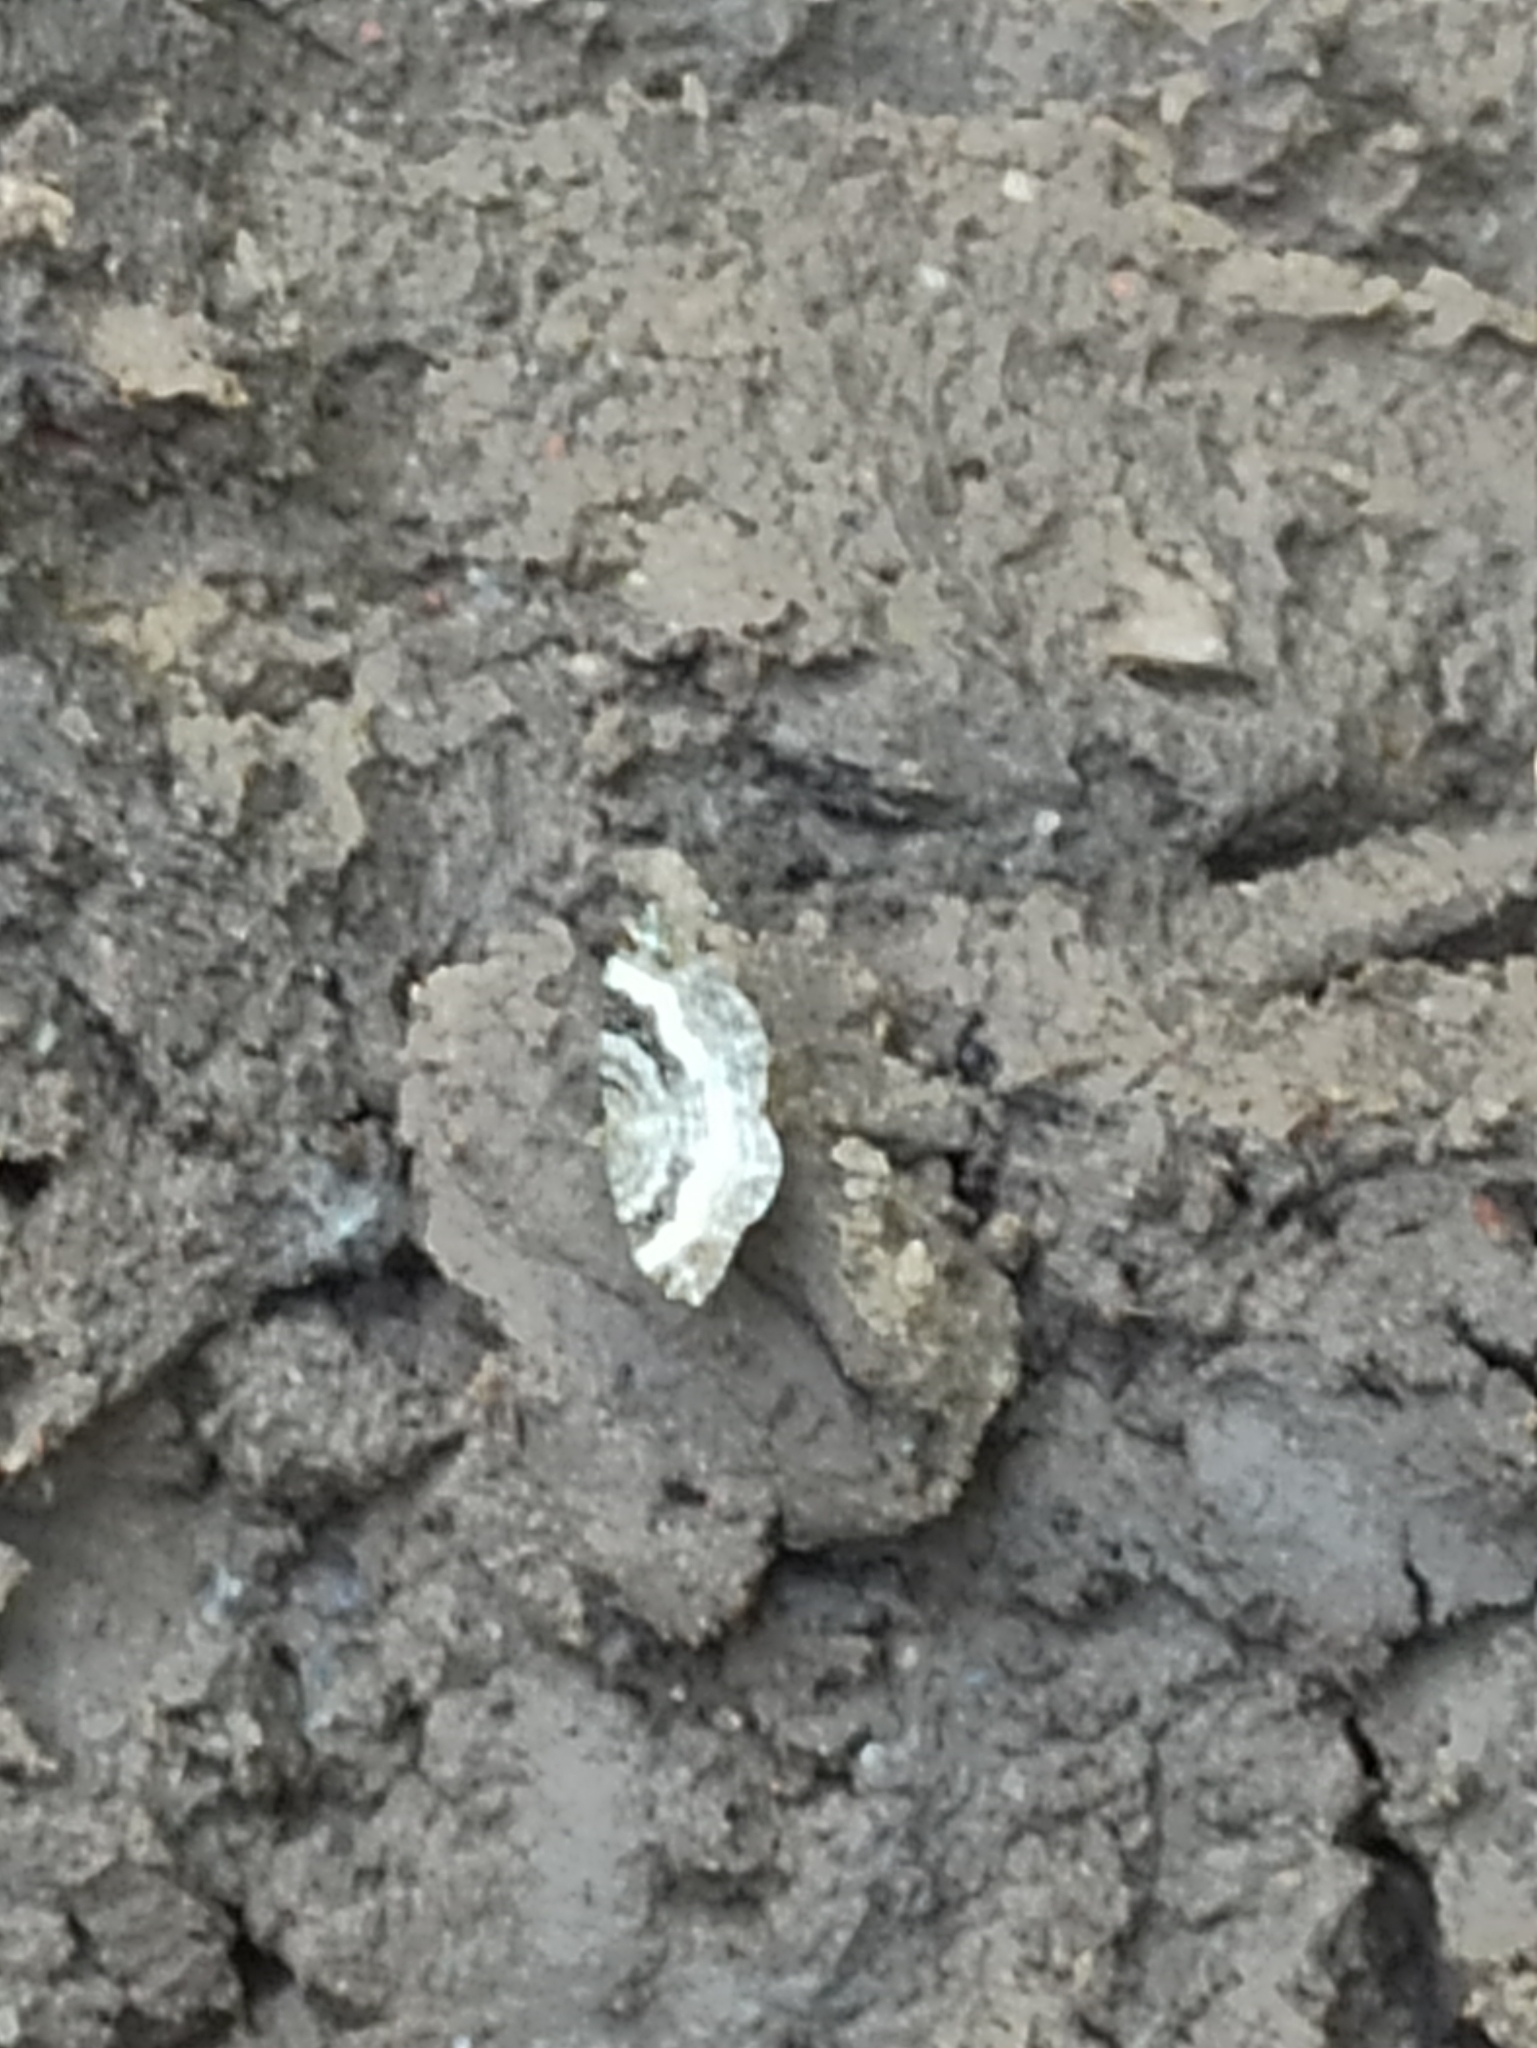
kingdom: Animalia
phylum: Arthropoda
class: Insecta
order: Lepidoptera
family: Geometridae
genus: Epirrhoe
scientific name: Epirrhoe alternata
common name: Common carpet
